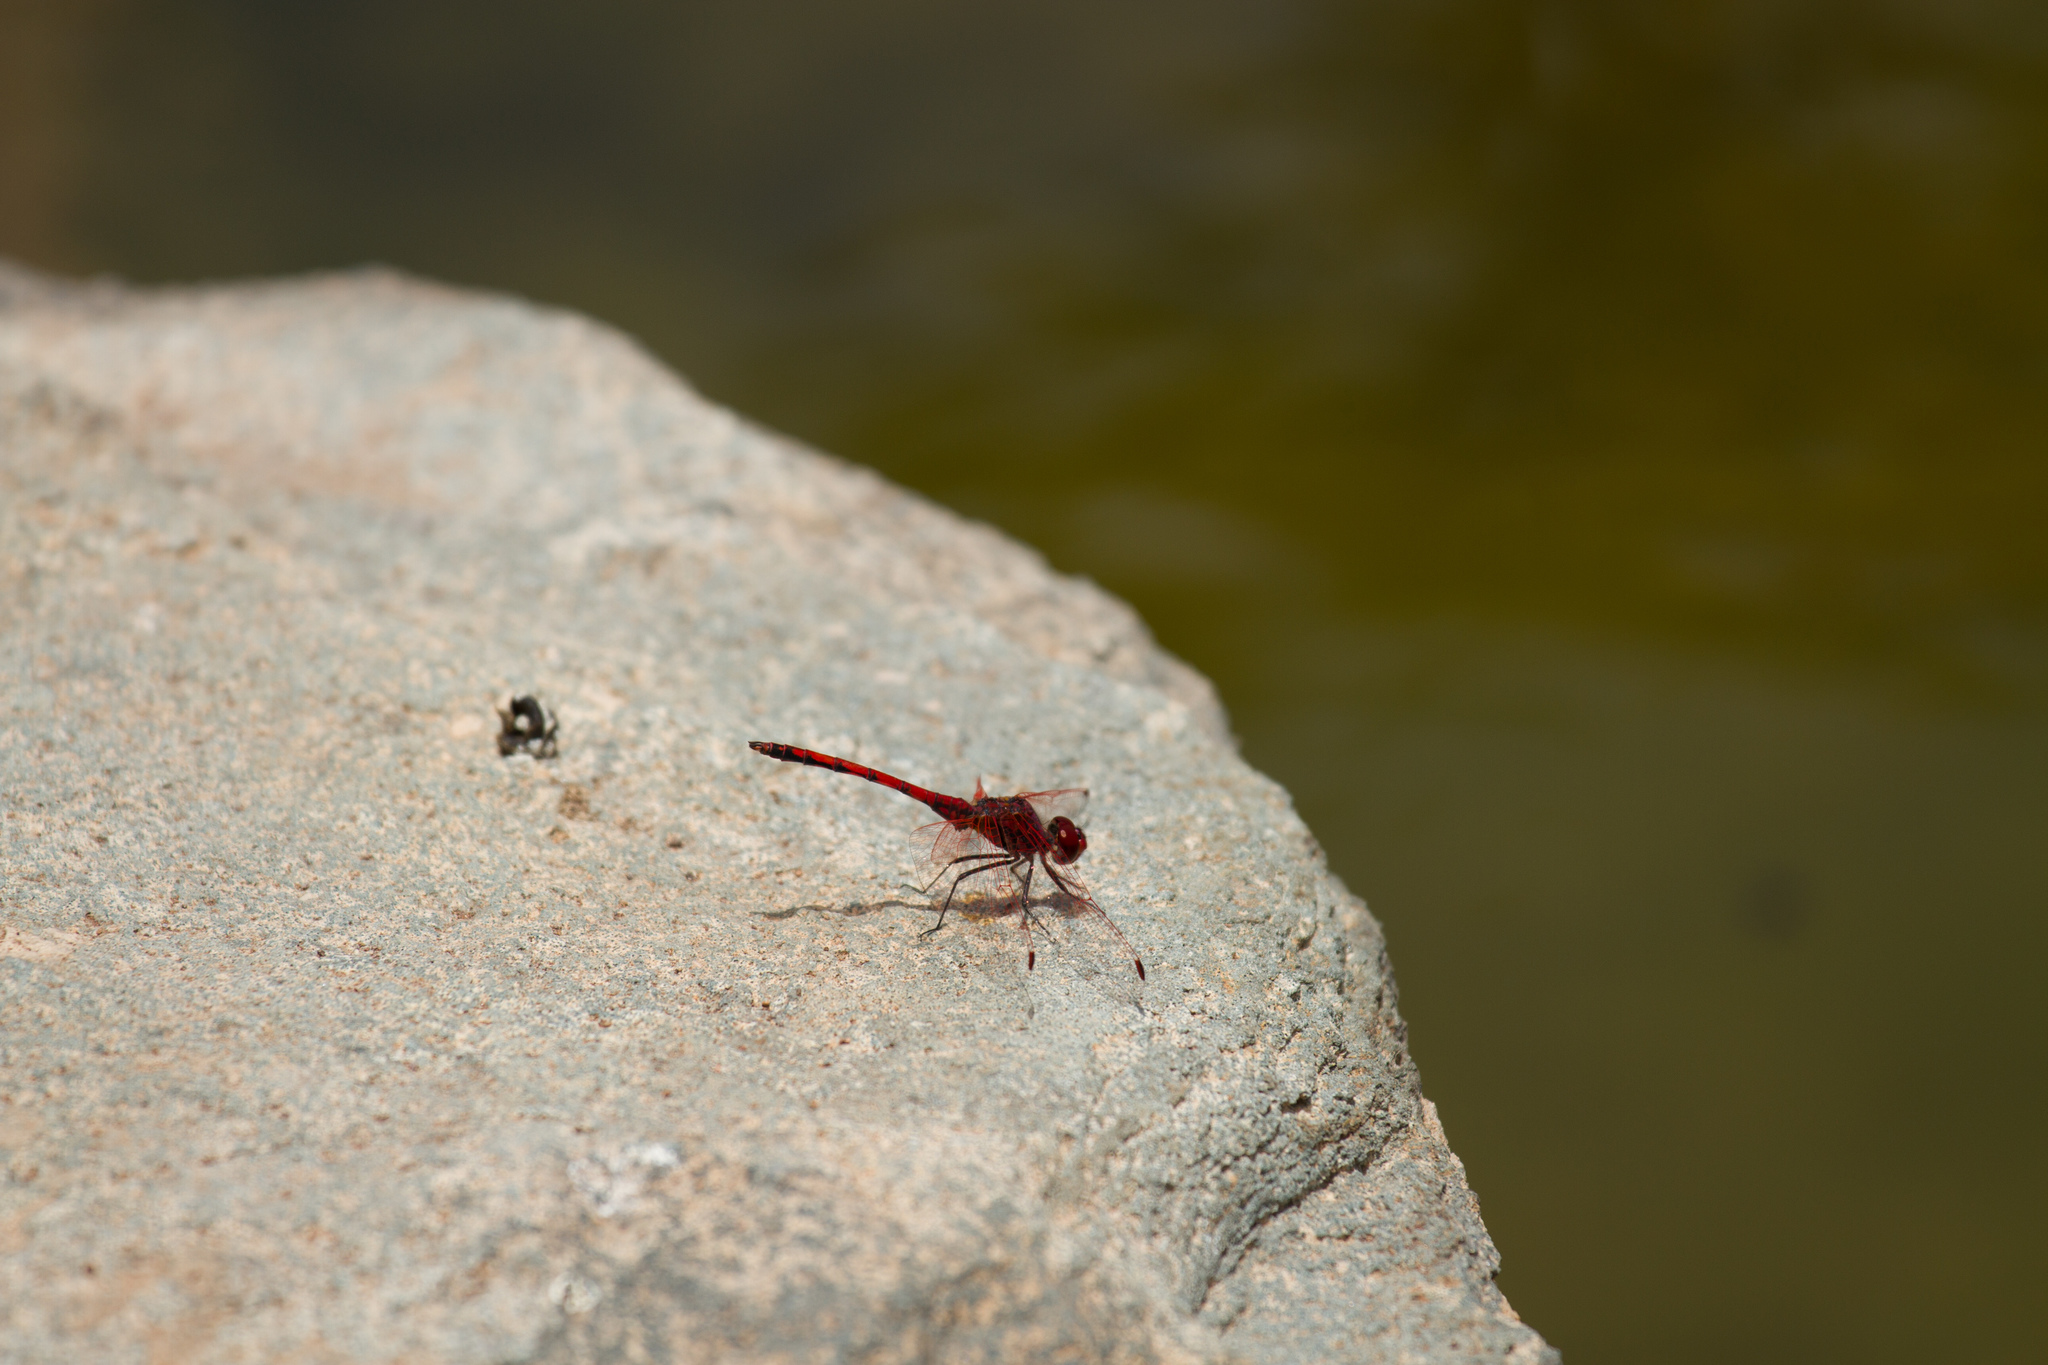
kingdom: Animalia
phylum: Arthropoda
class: Insecta
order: Odonata
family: Libellulidae
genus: Trithemis
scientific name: Trithemis arteriosa
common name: Red-veined dropwing
